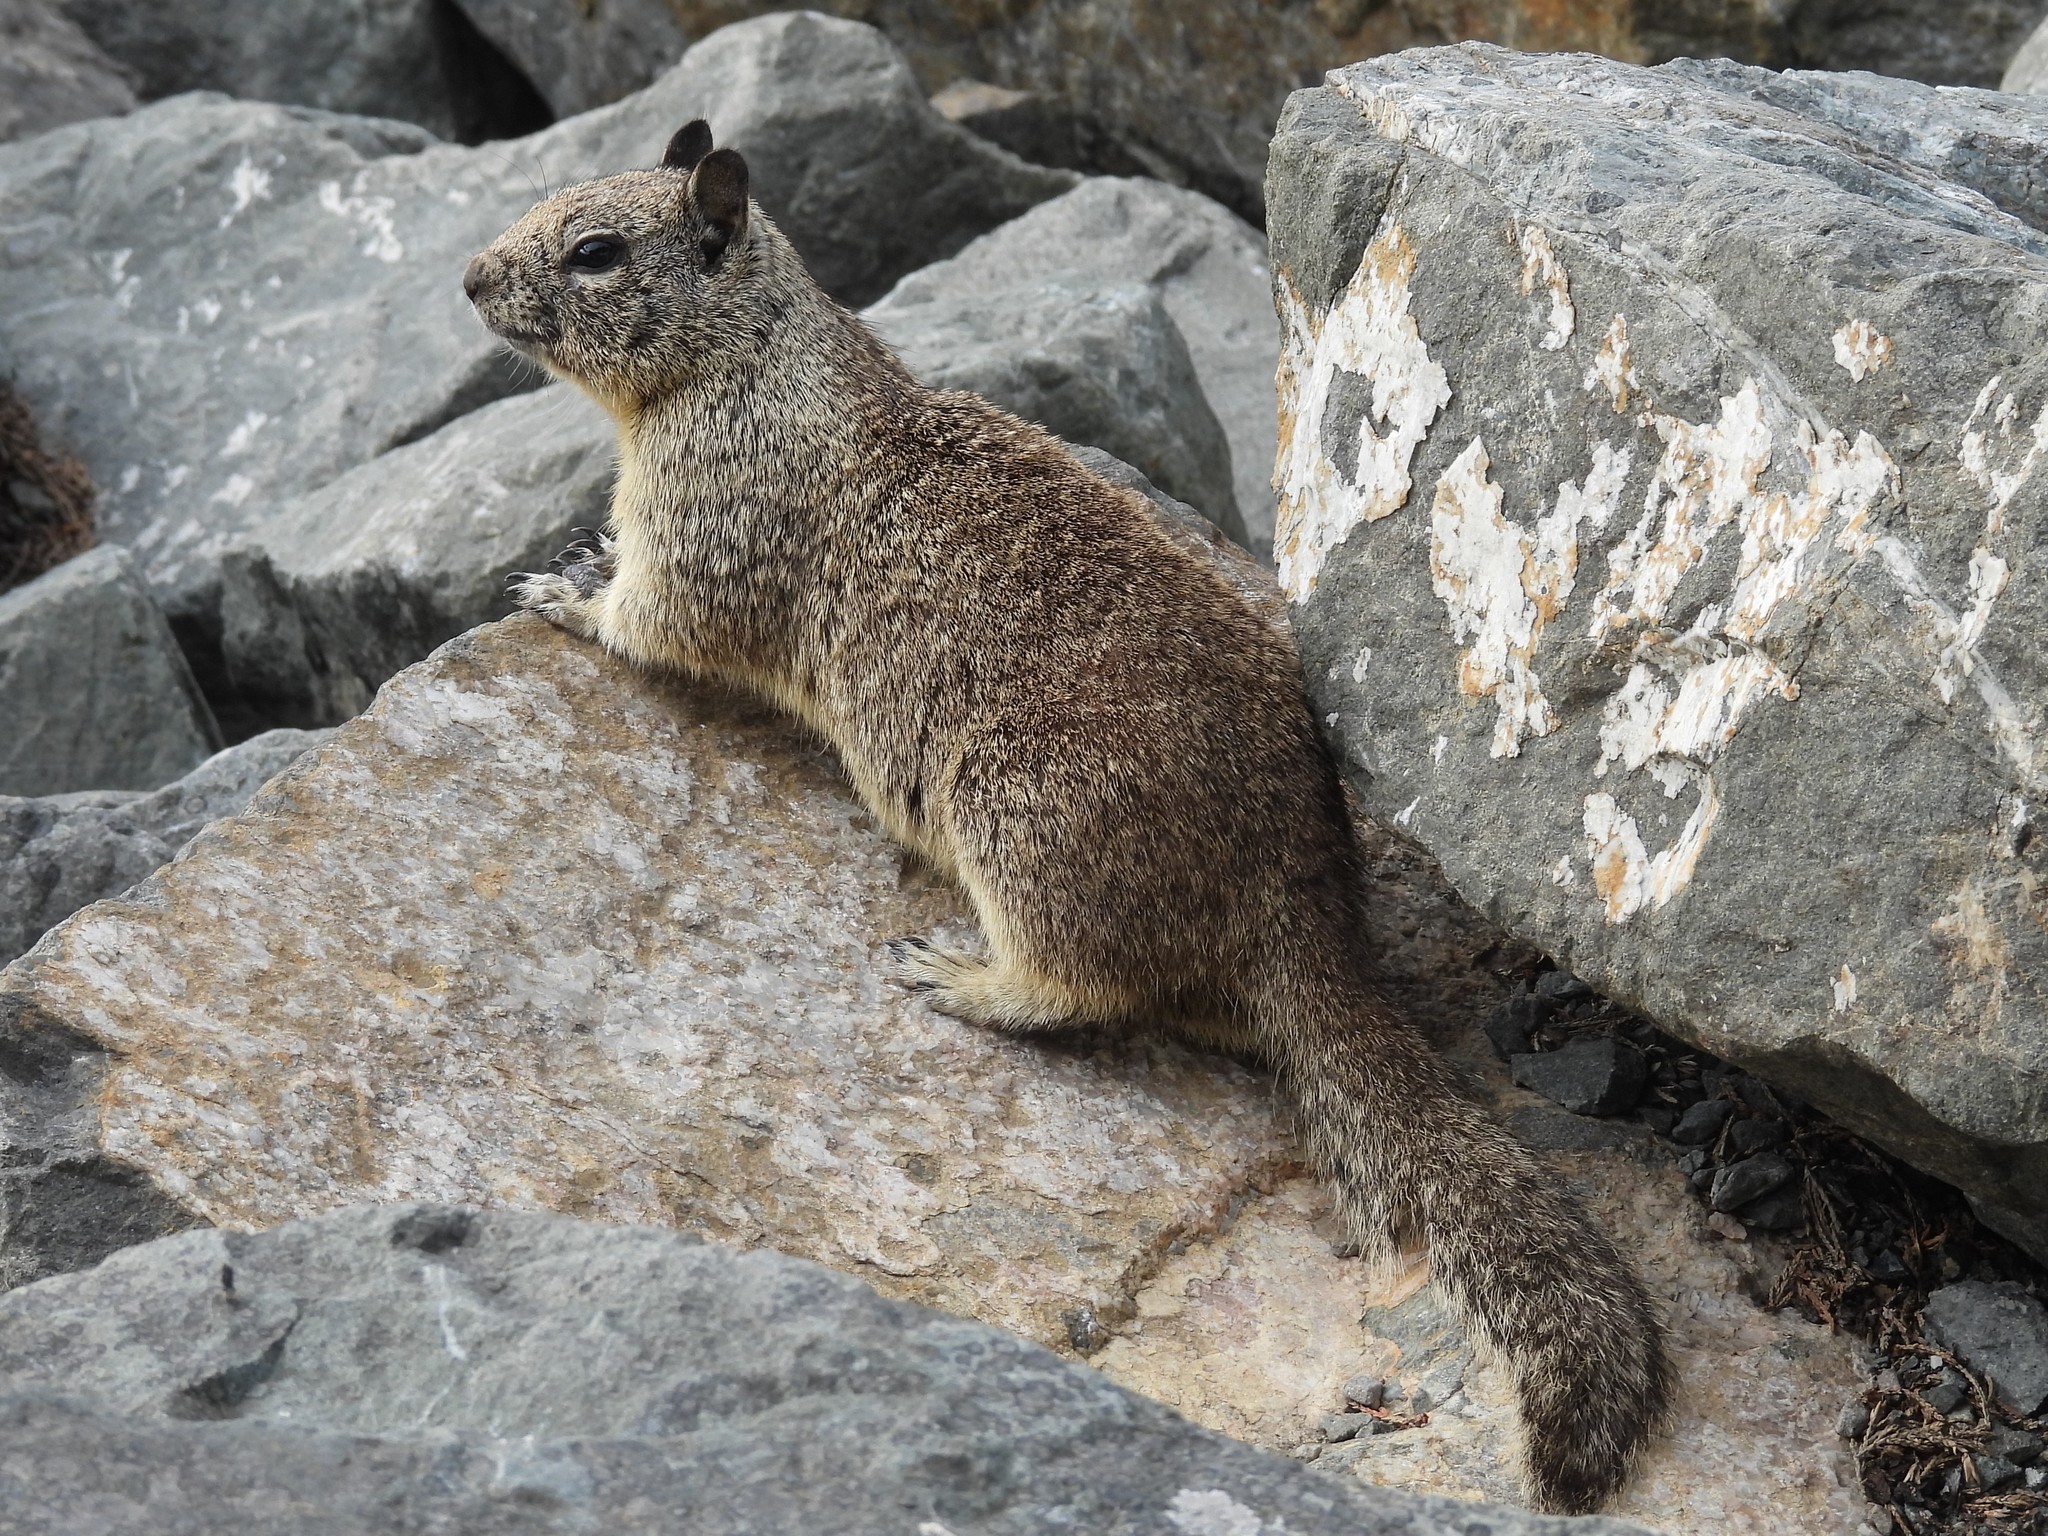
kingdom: Animalia
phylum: Chordata
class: Mammalia
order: Rodentia
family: Sciuridae
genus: Otospermophilus
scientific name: Otospermophilus beecheyi
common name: California ground squirrel
